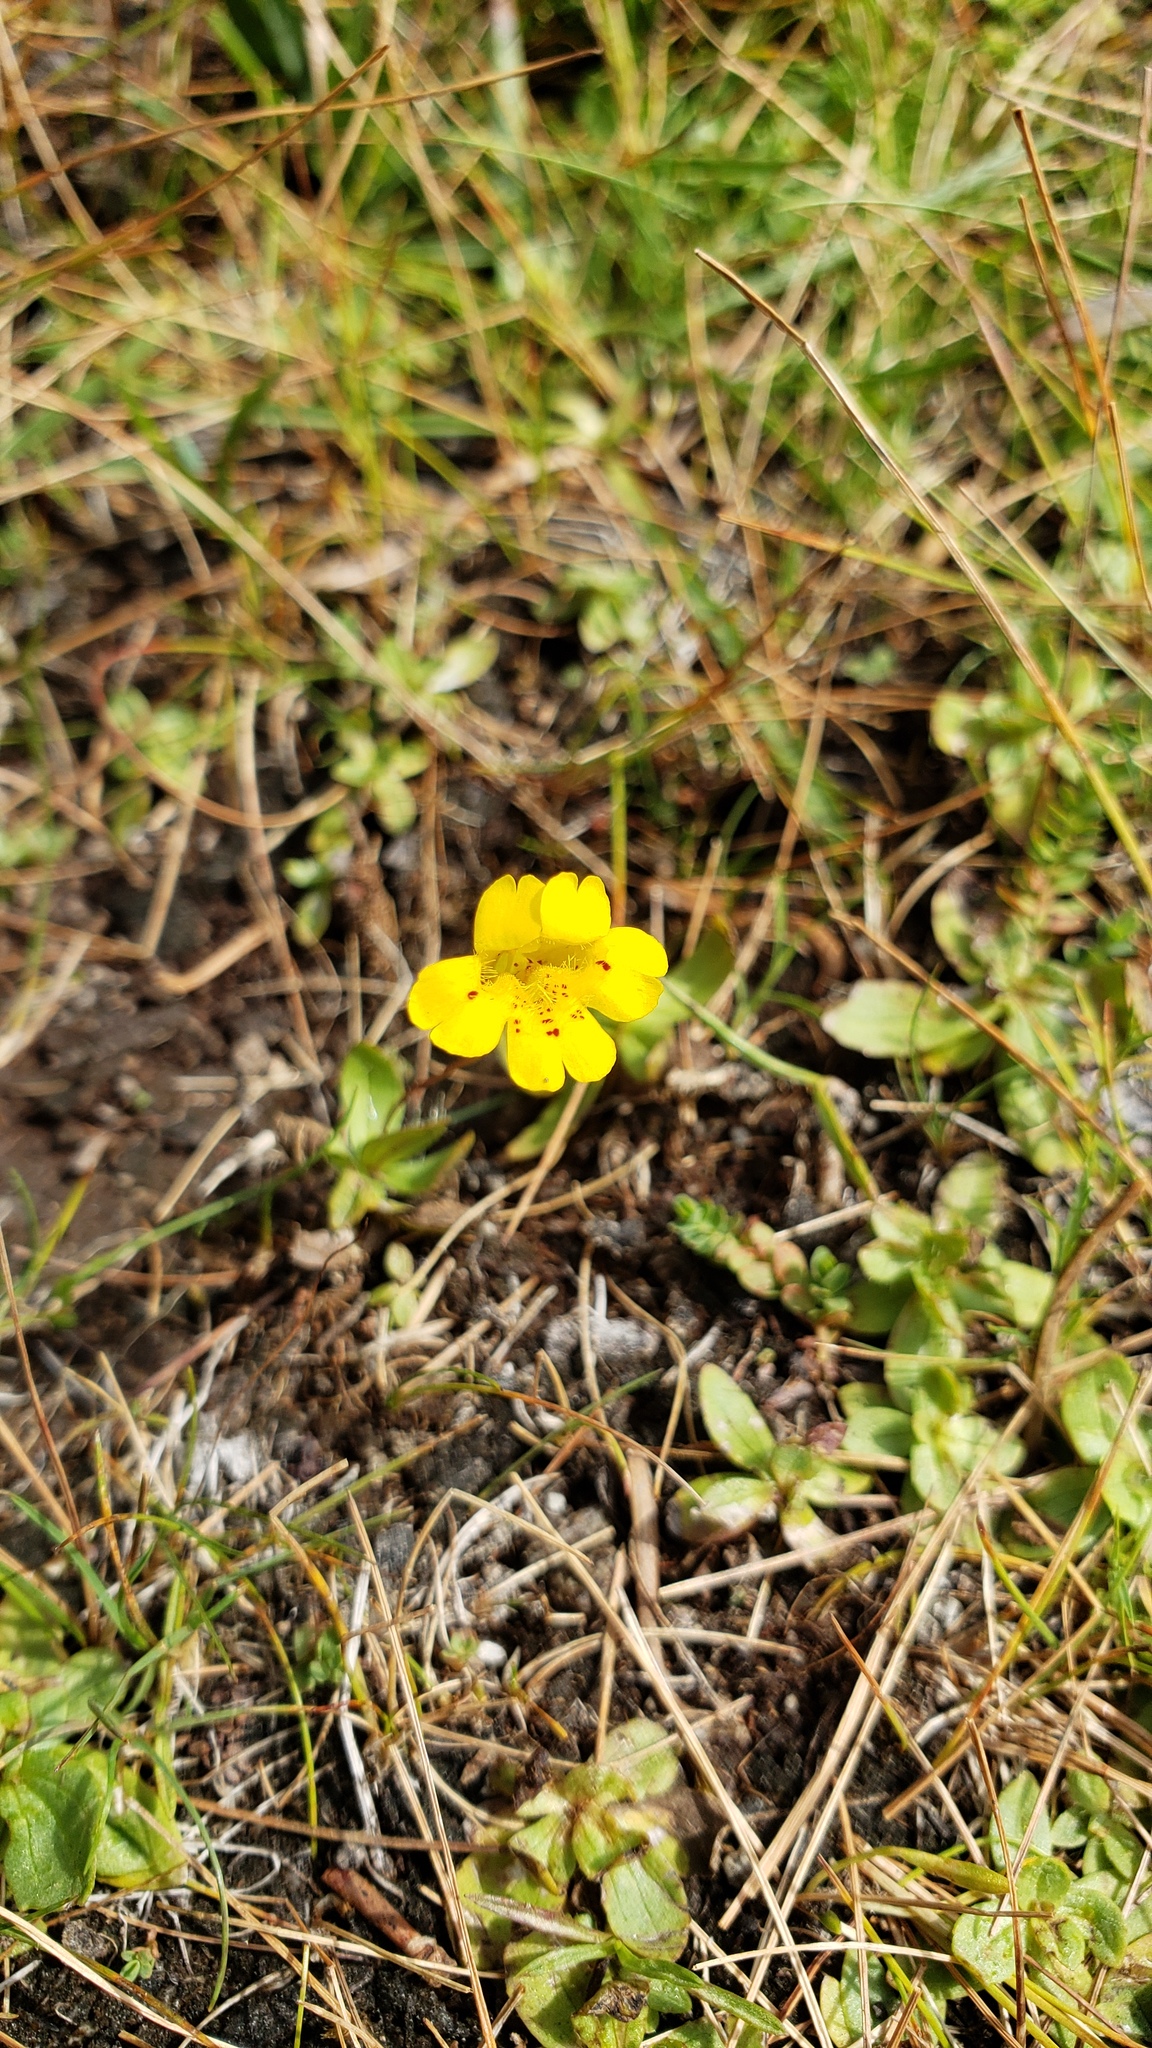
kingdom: Plantae
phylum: Tracheophyta
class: Magnoliopsida
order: Lamiales
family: Phrymaceae
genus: Erythranthe
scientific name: Erythranthe primuloides
